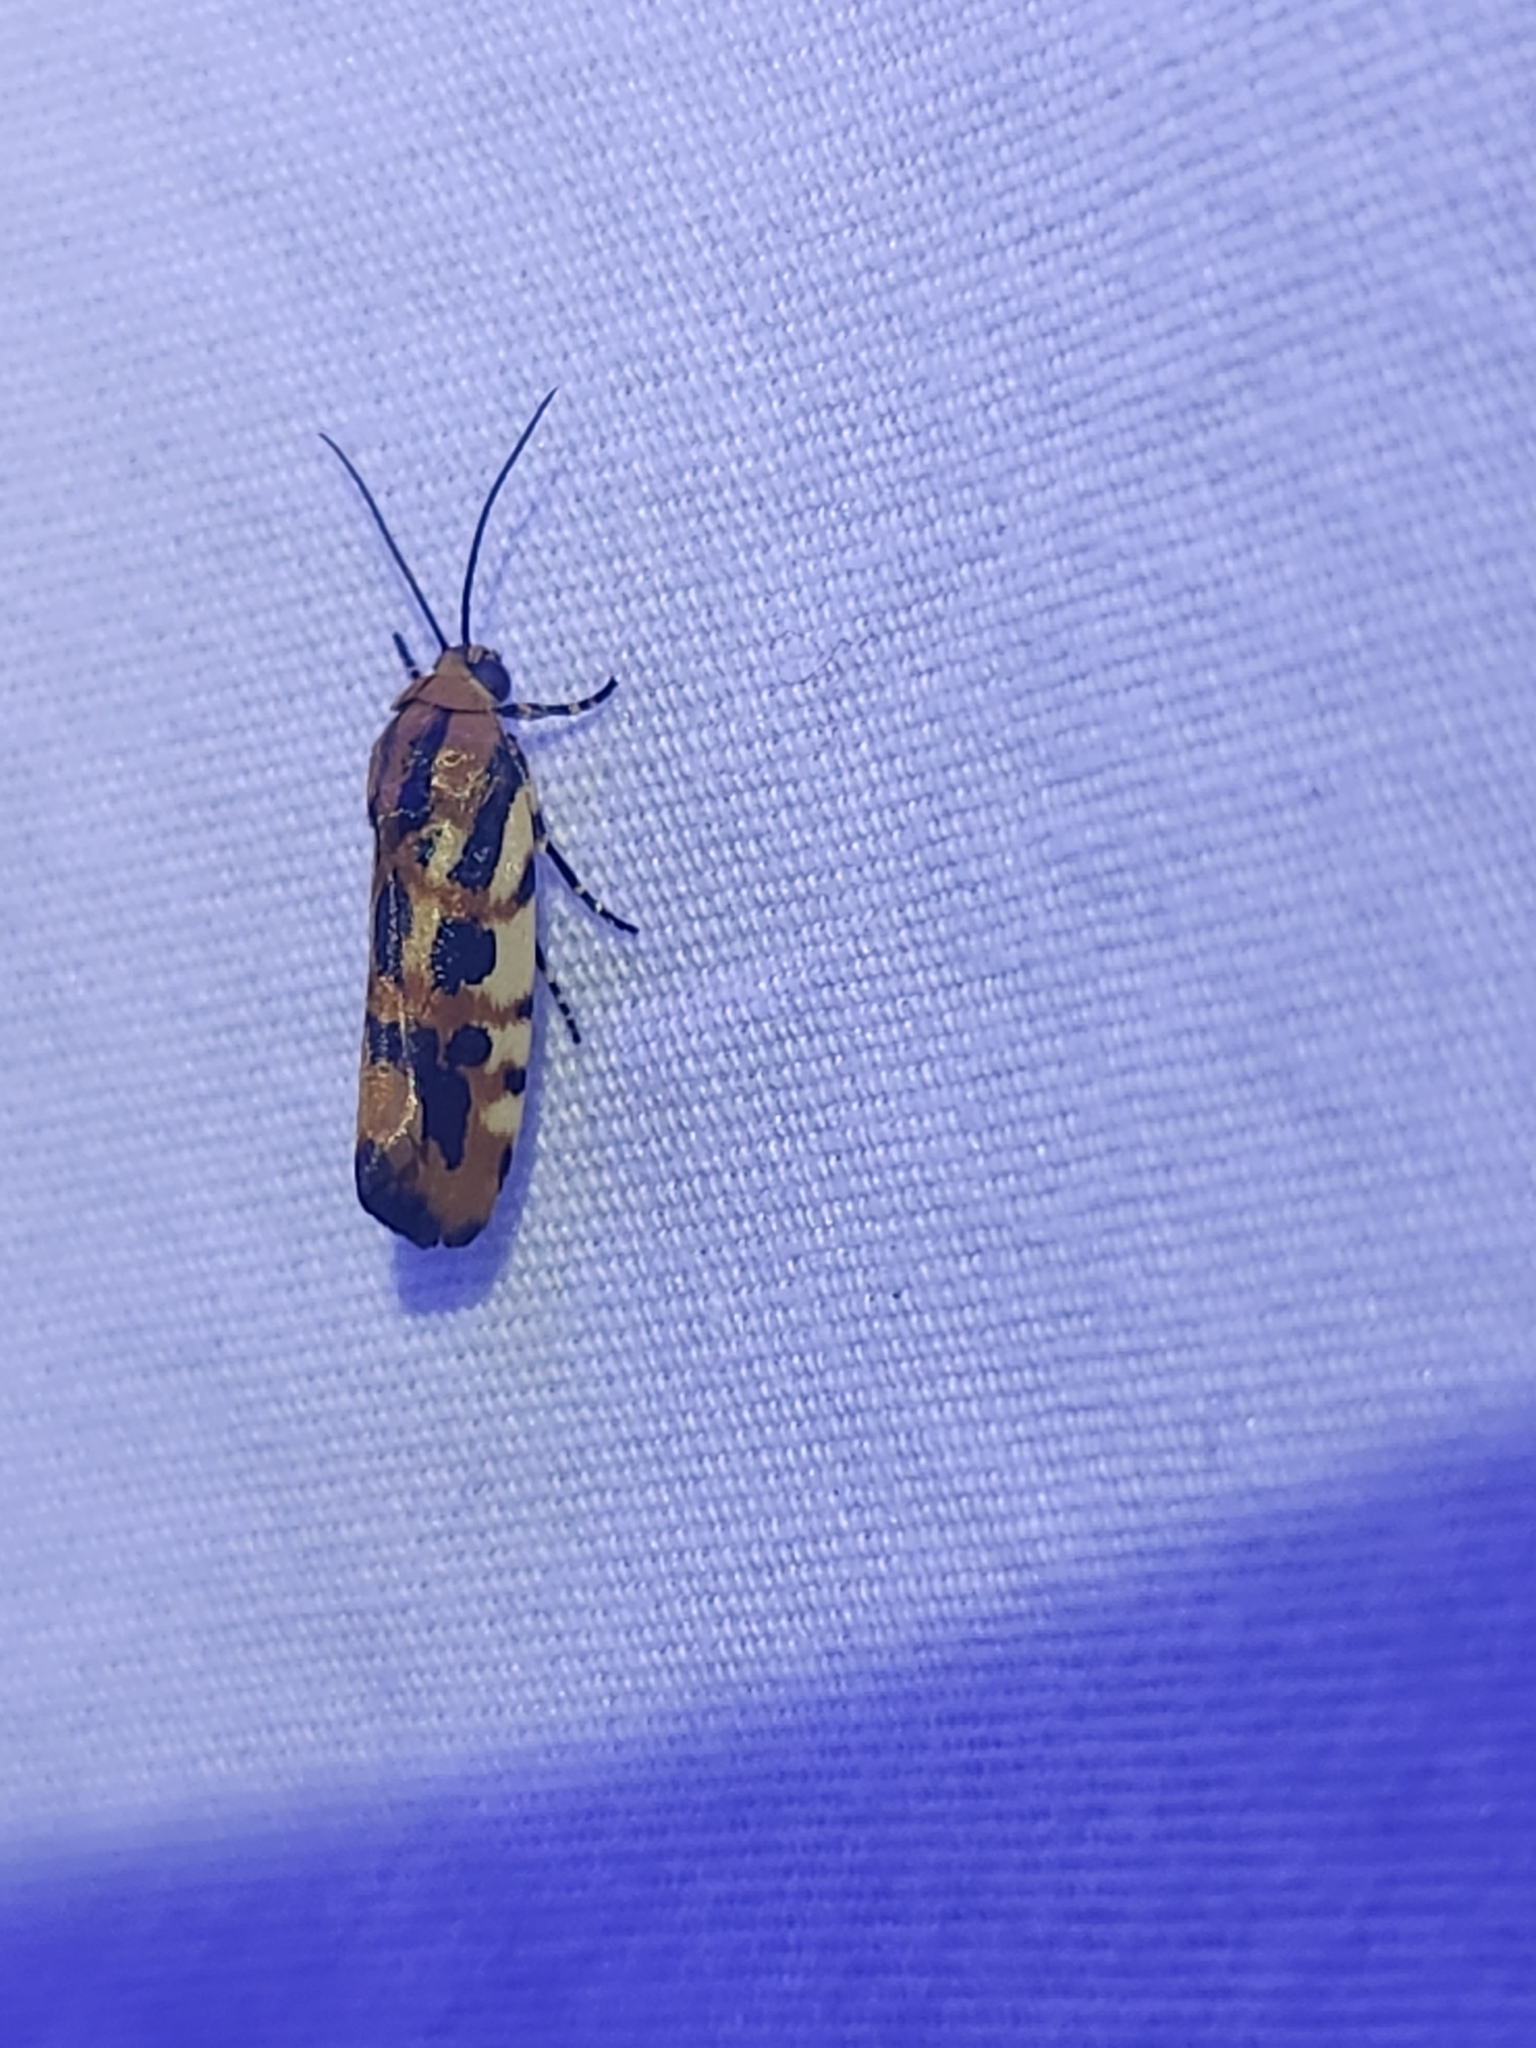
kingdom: Animalia
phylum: Arthropoda
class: Insecta
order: Lepidoptera
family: Noctuidae
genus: Acontia
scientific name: Acontia leo
